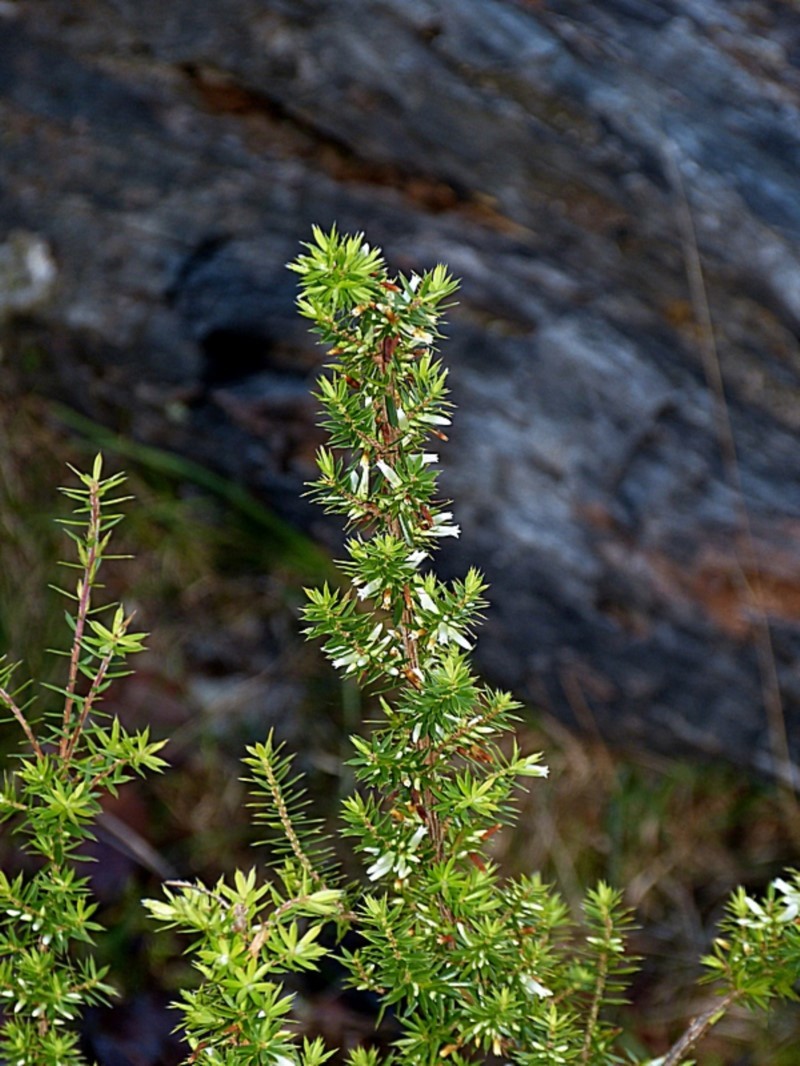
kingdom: Plantae
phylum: Tracheophyta
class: Magnoliopsida
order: Ericales
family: Ericaceae
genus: Styphelia
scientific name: Styphelia sieberi
